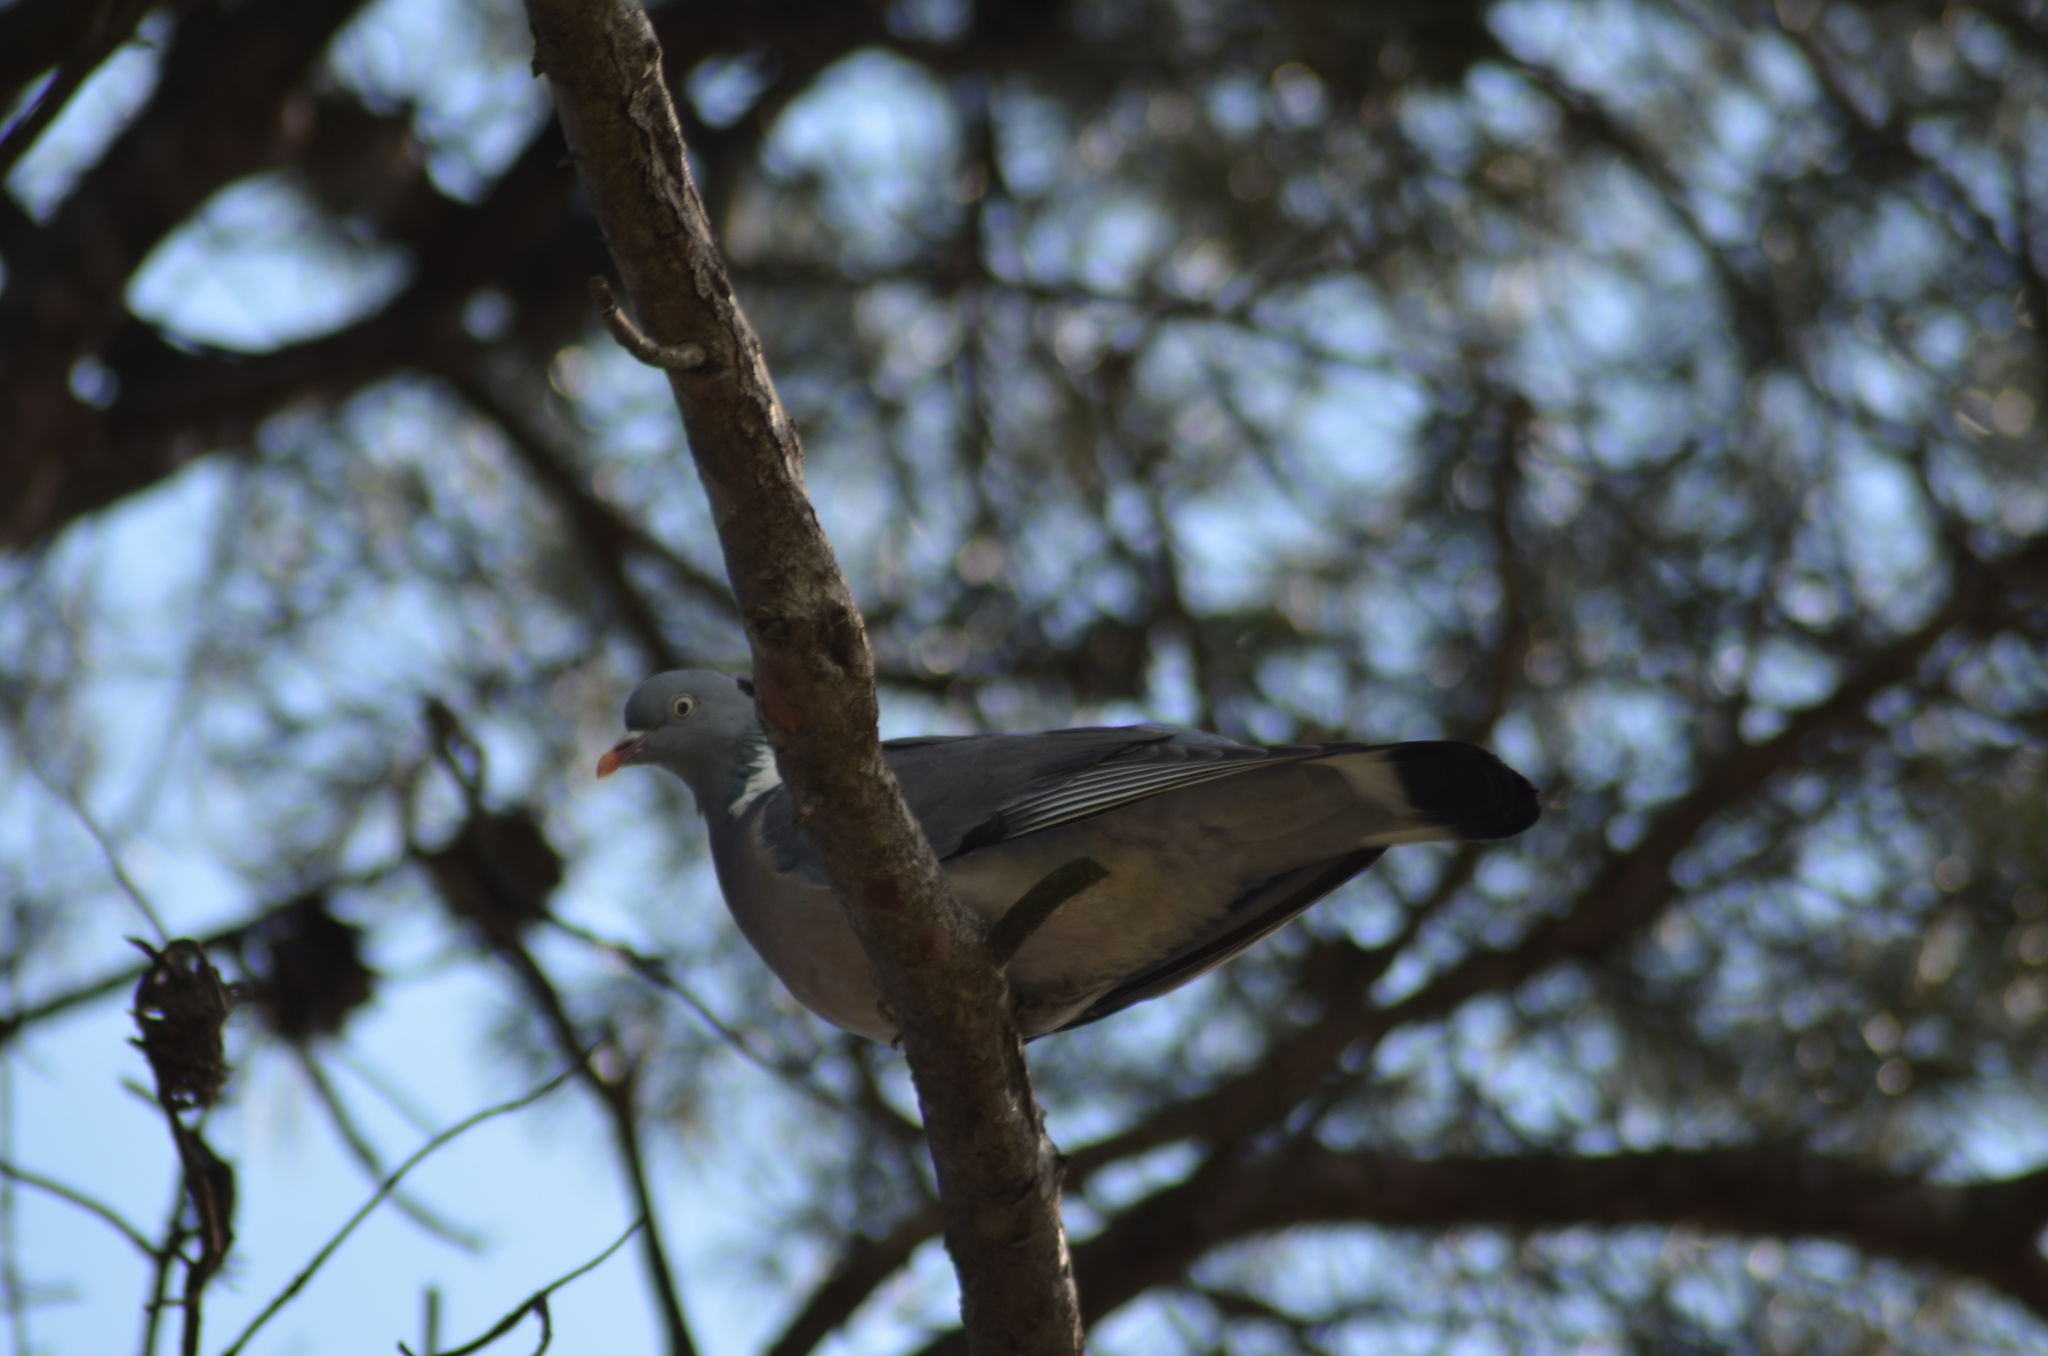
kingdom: Animalia
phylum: Chordata
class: Aves
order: Columbiformes
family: Columbidae
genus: Columba
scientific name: Columba palumbus
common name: Common wood pigeon
